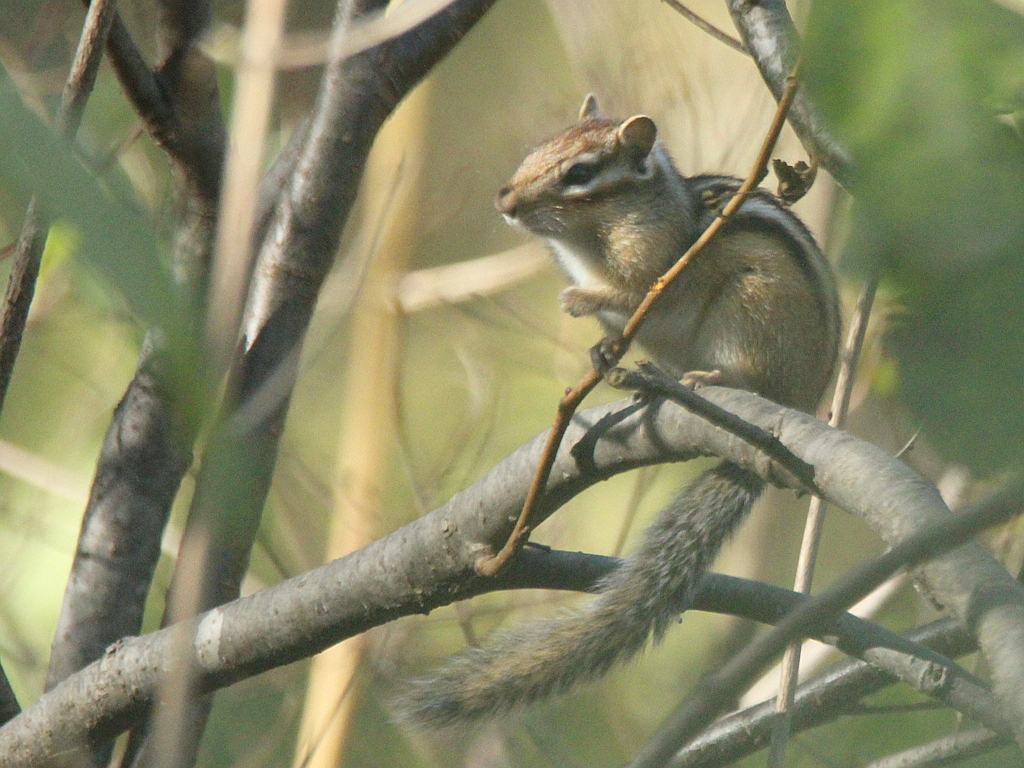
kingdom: Animalia
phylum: Chordata
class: Mammalia
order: Rodentia
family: Sciuridae
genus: Tamias
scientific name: Tamias sibiricus
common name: Siberian chipmunk
